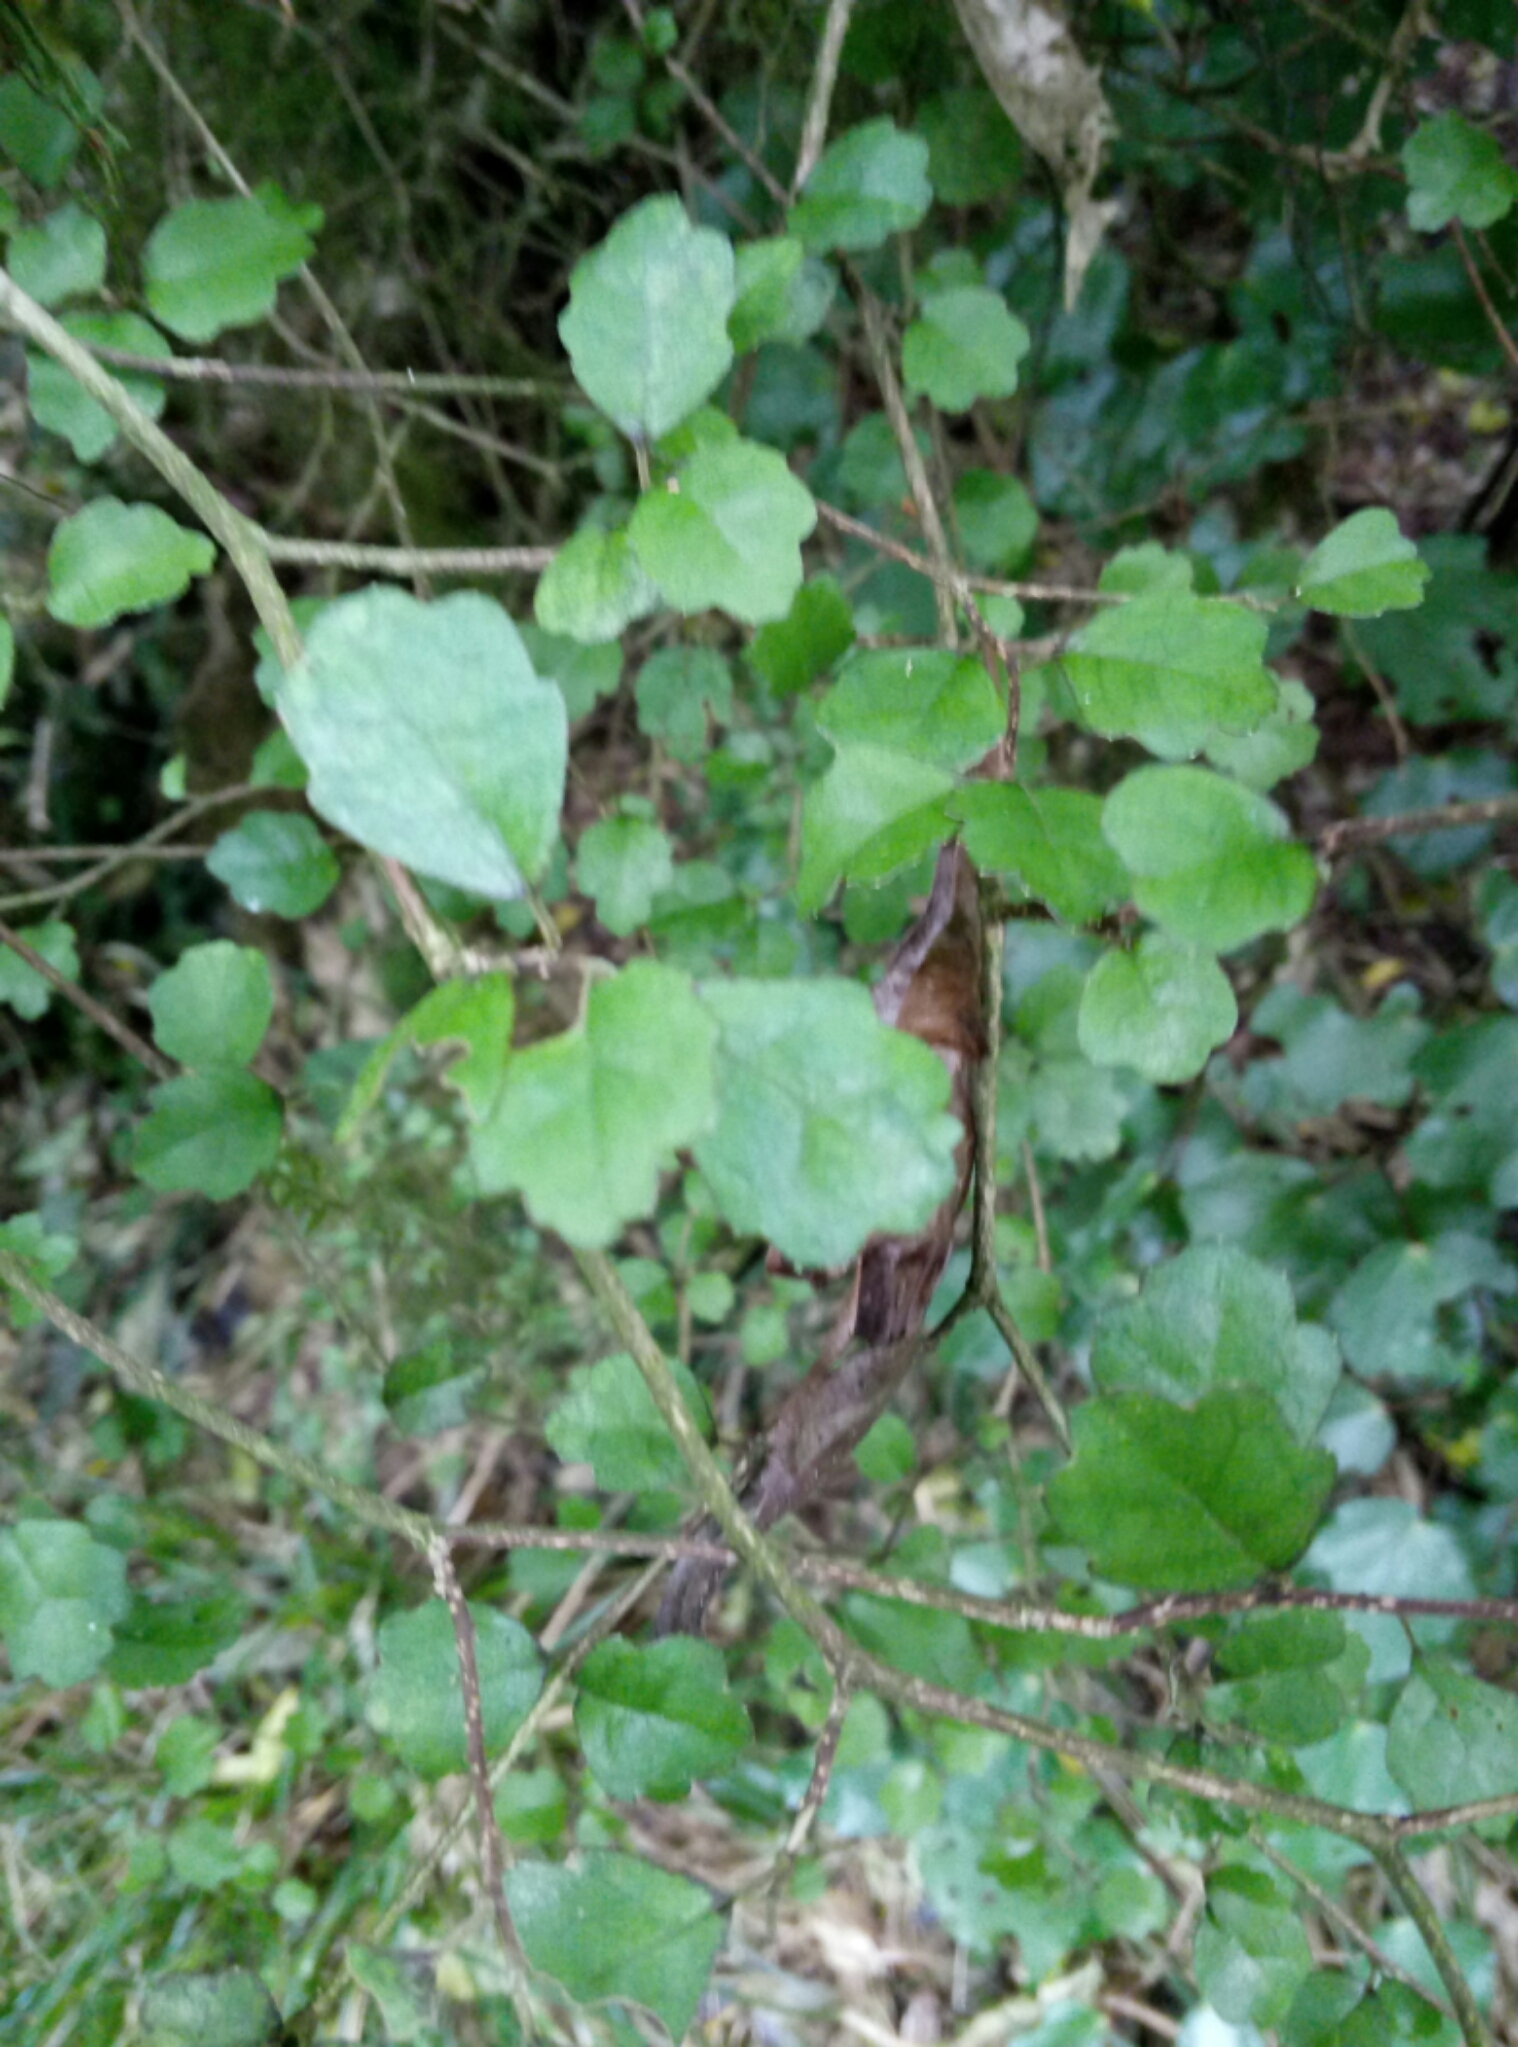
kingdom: Plantae
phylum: Tracheophyta
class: Magnoliopsida
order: Apiales
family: Pennantiaceae
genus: Pennantia
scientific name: Pennantia corymbosa
